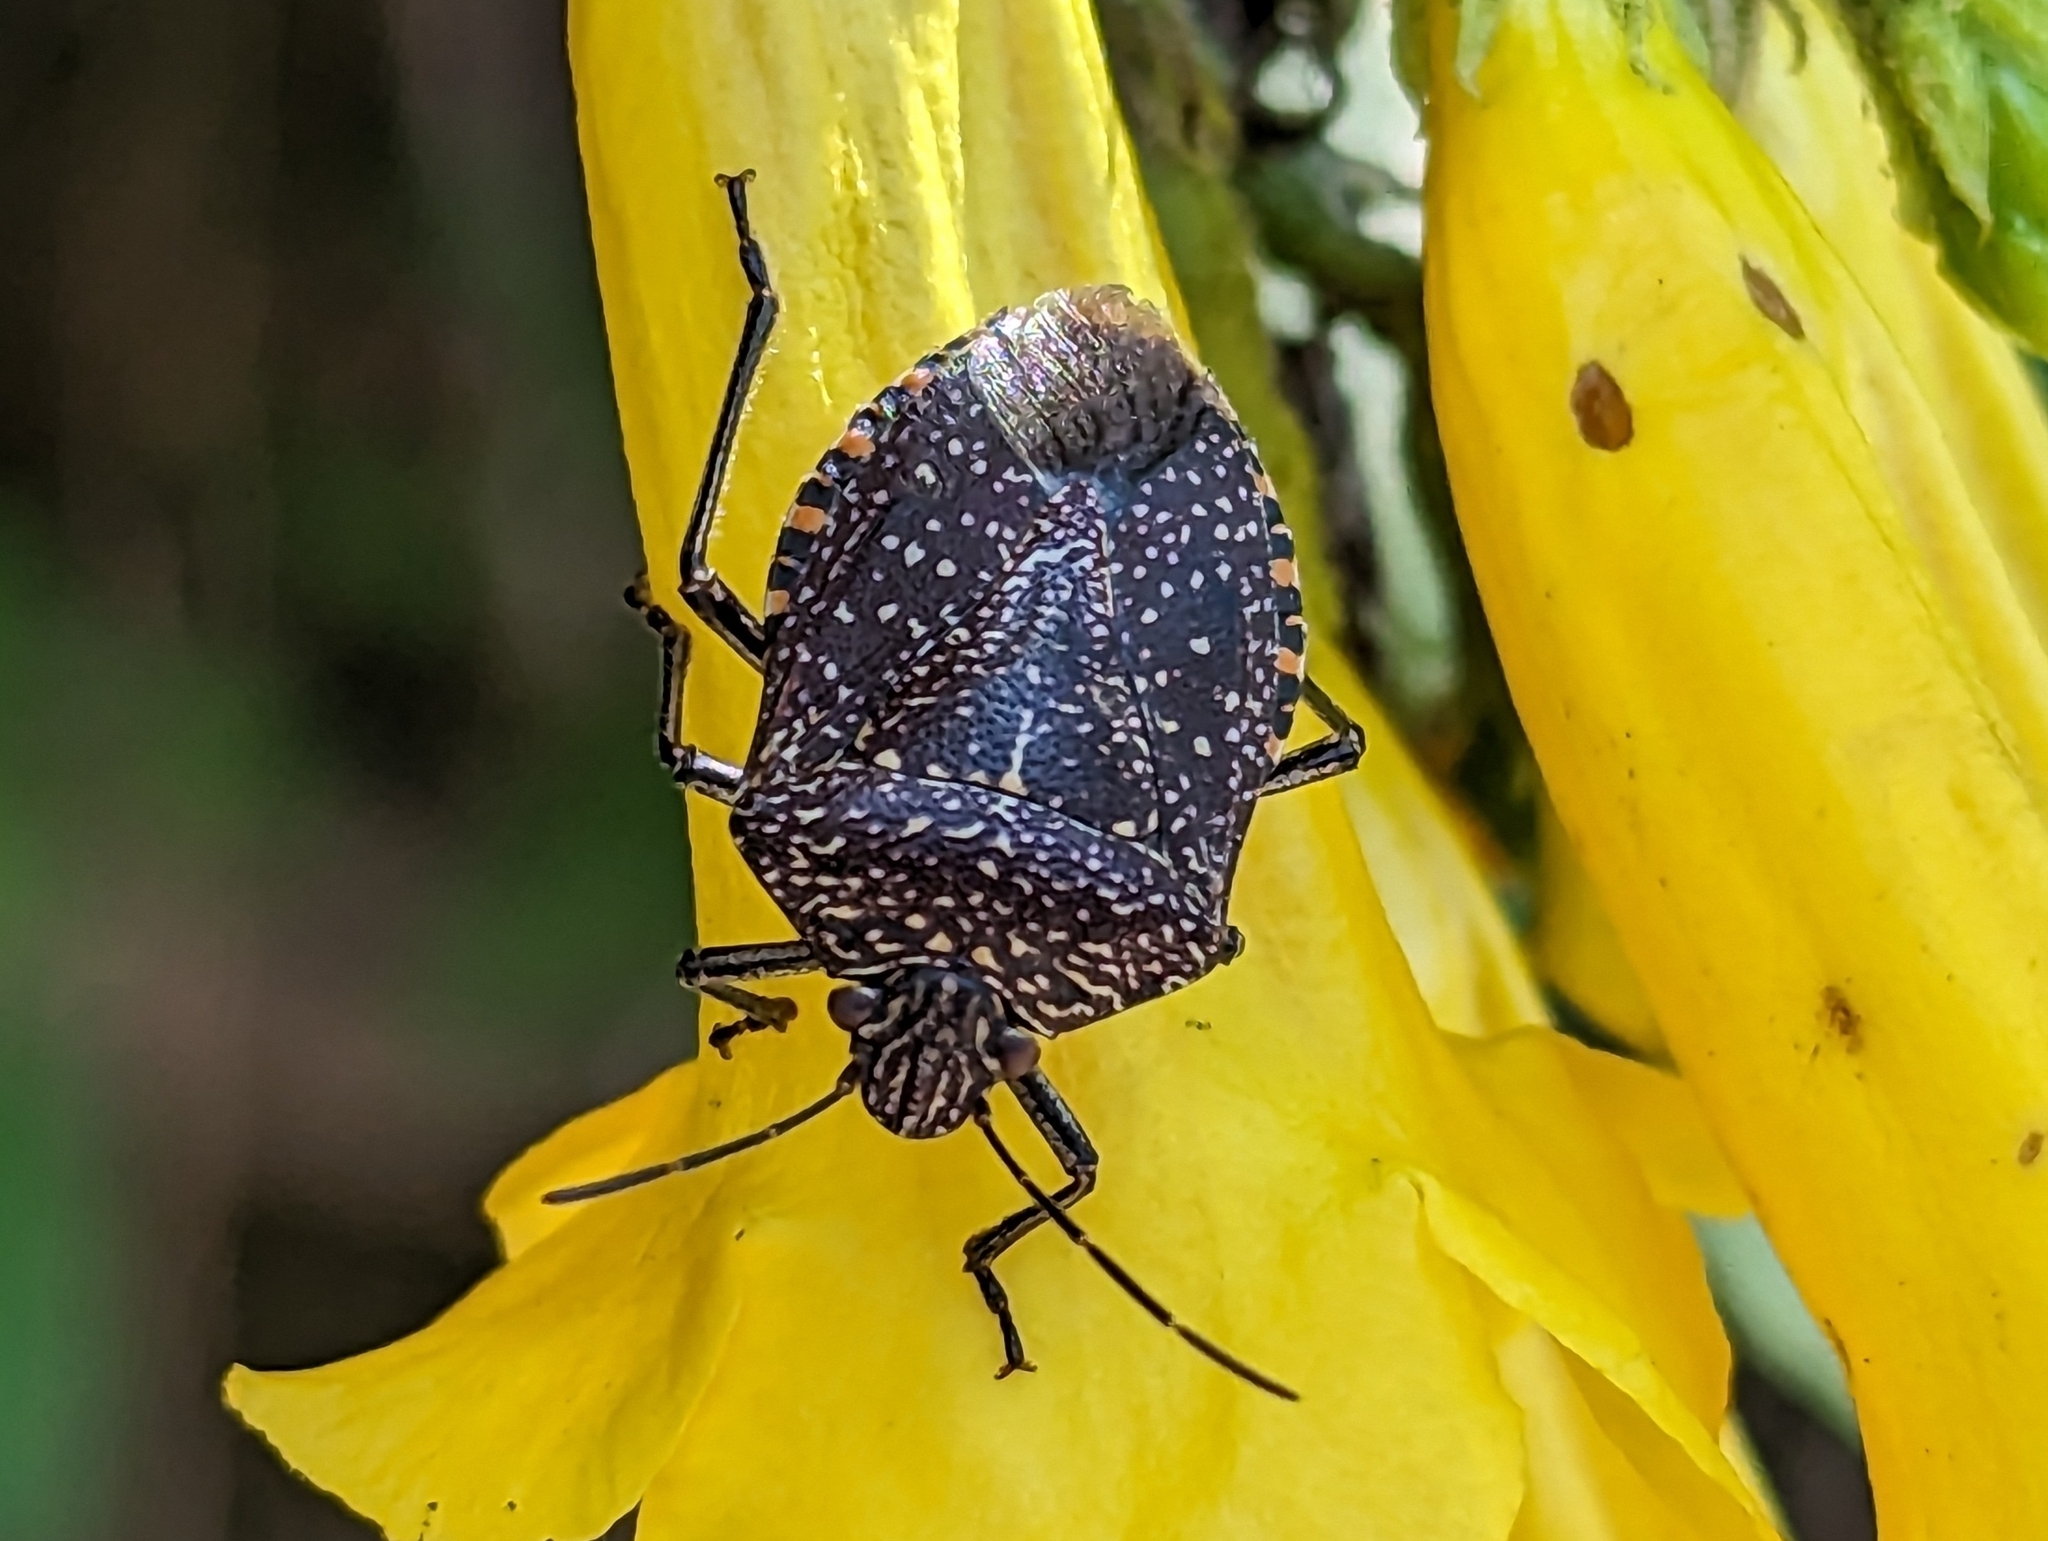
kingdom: Animalia
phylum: Arthropoda
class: Insecta
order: Hemiptera
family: Pentatomidae
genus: Pellaea
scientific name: Pellaea stictica
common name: Stink bug
